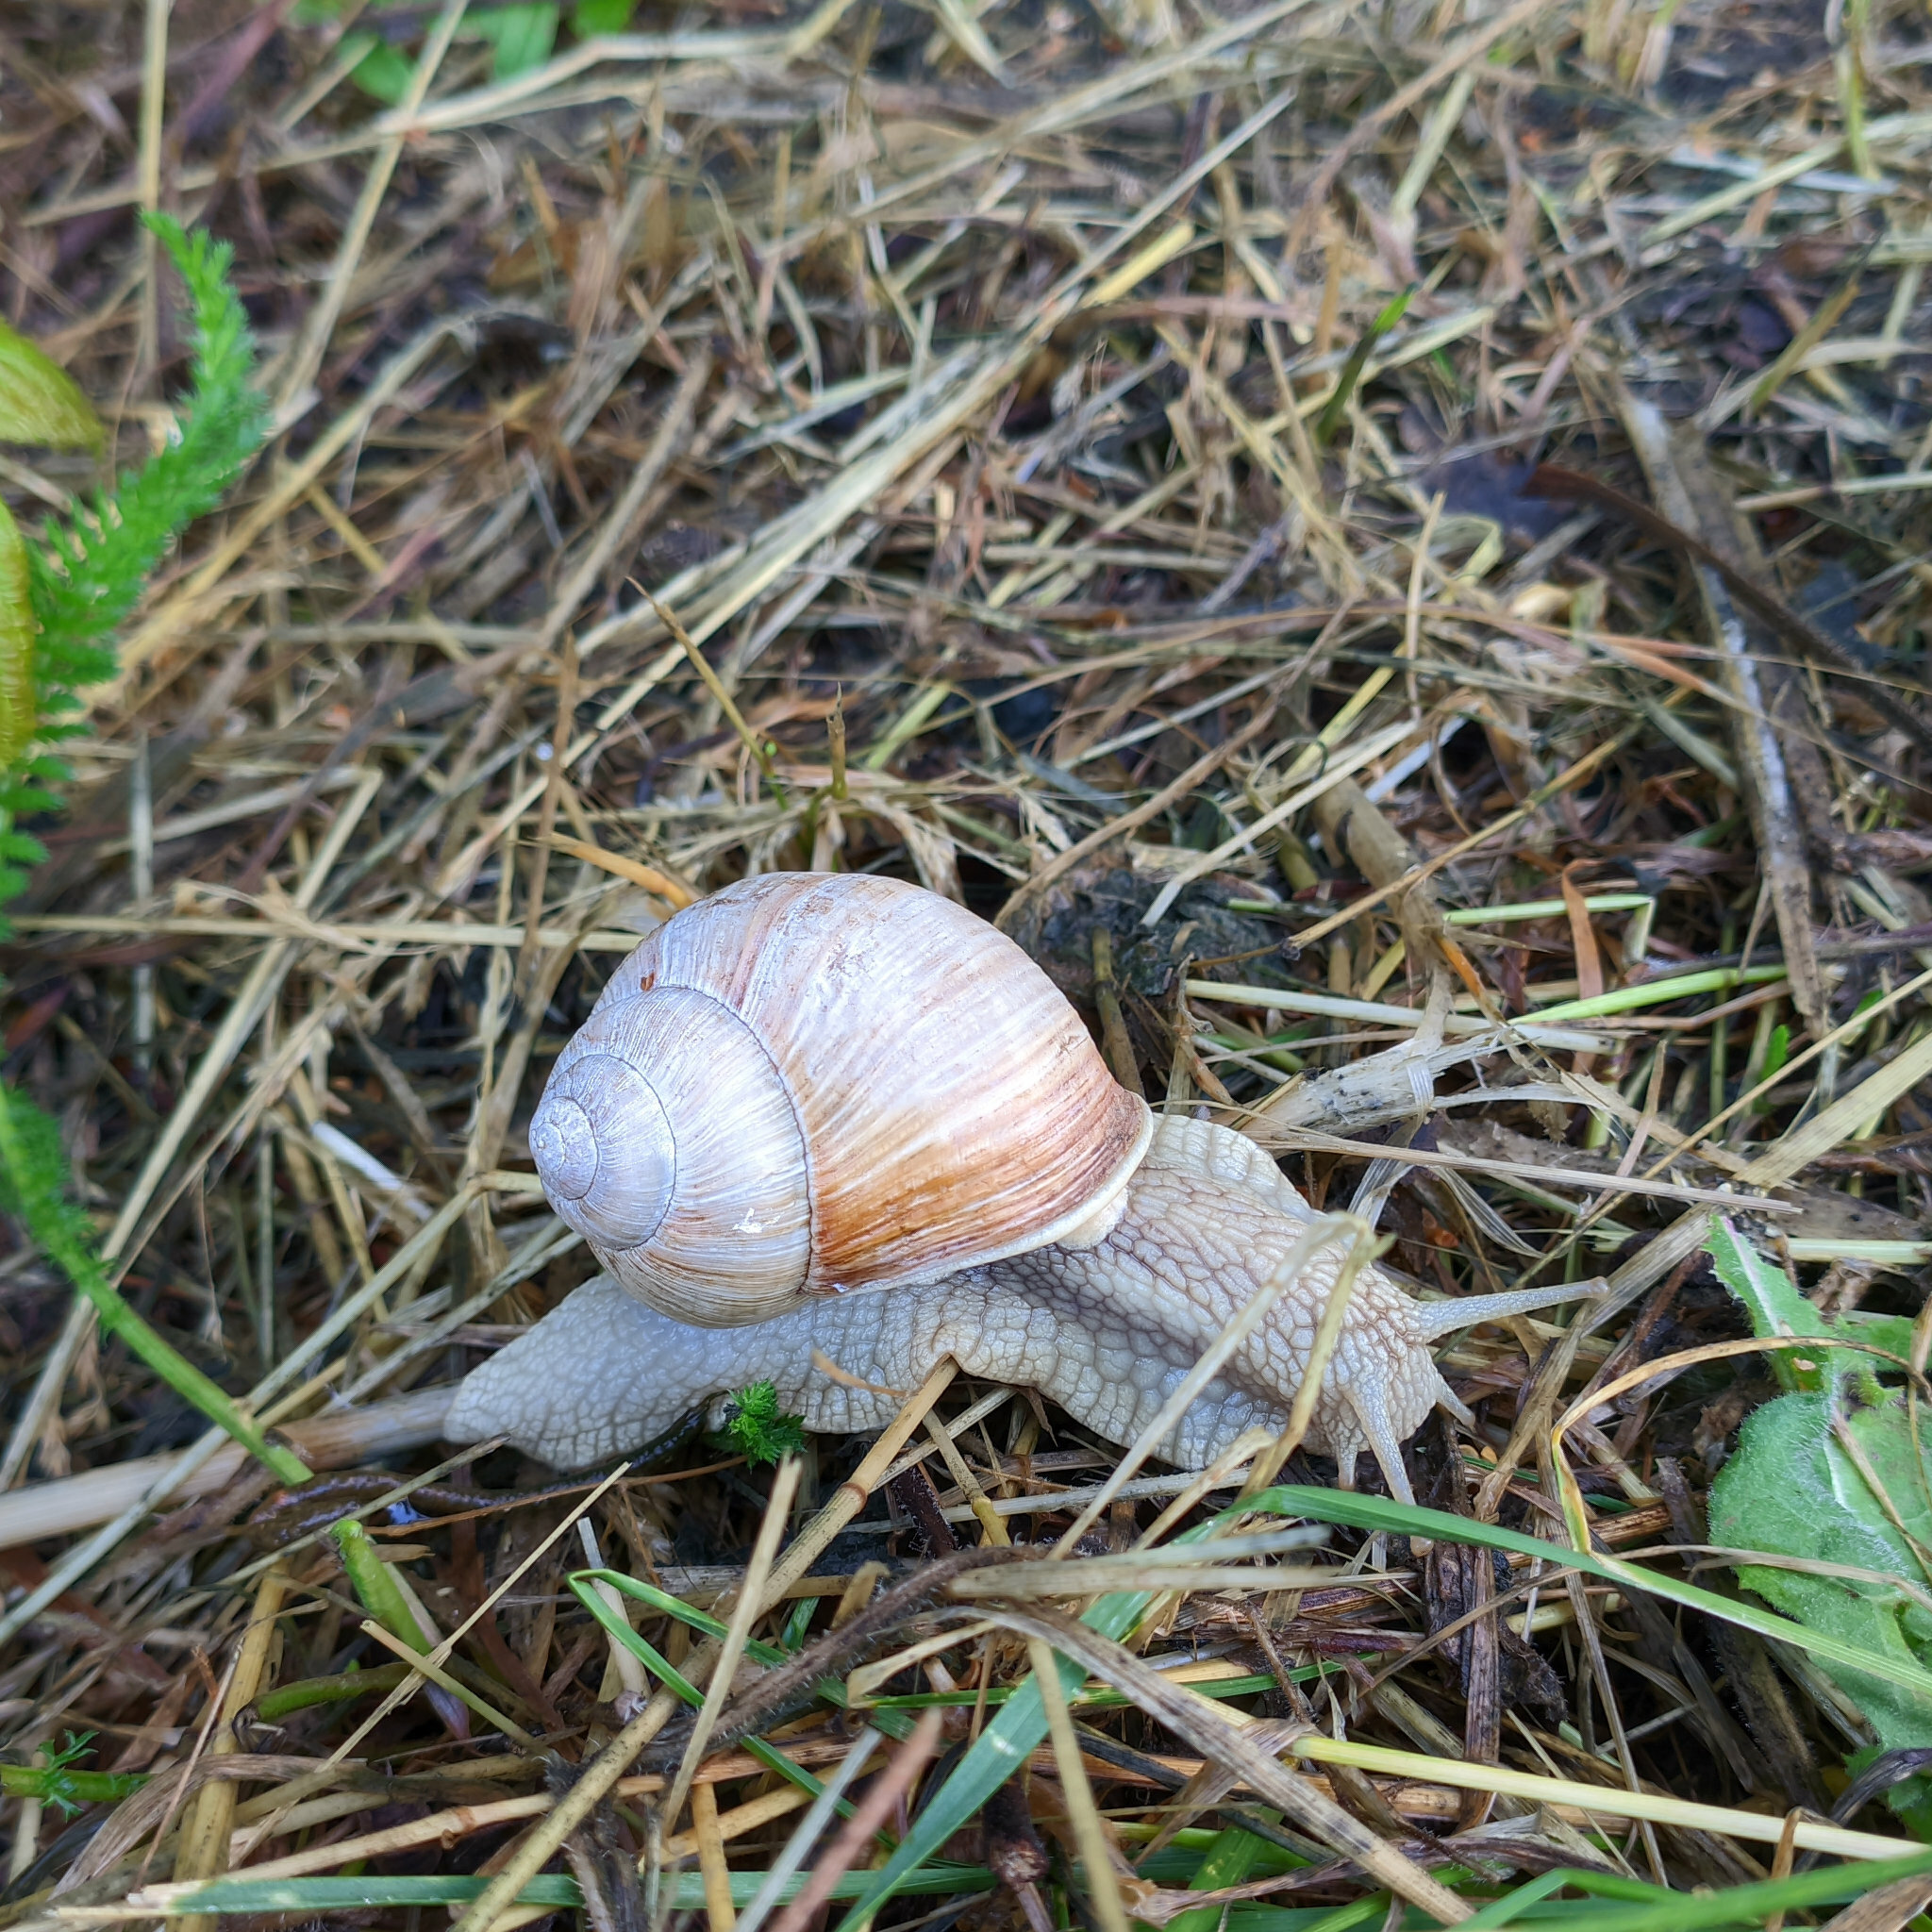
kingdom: Animalia
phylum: Mollusca
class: Gastropoda
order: Stylommatophora
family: Helicidae
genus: Helix
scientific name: Helix pomatia
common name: Roman snail
